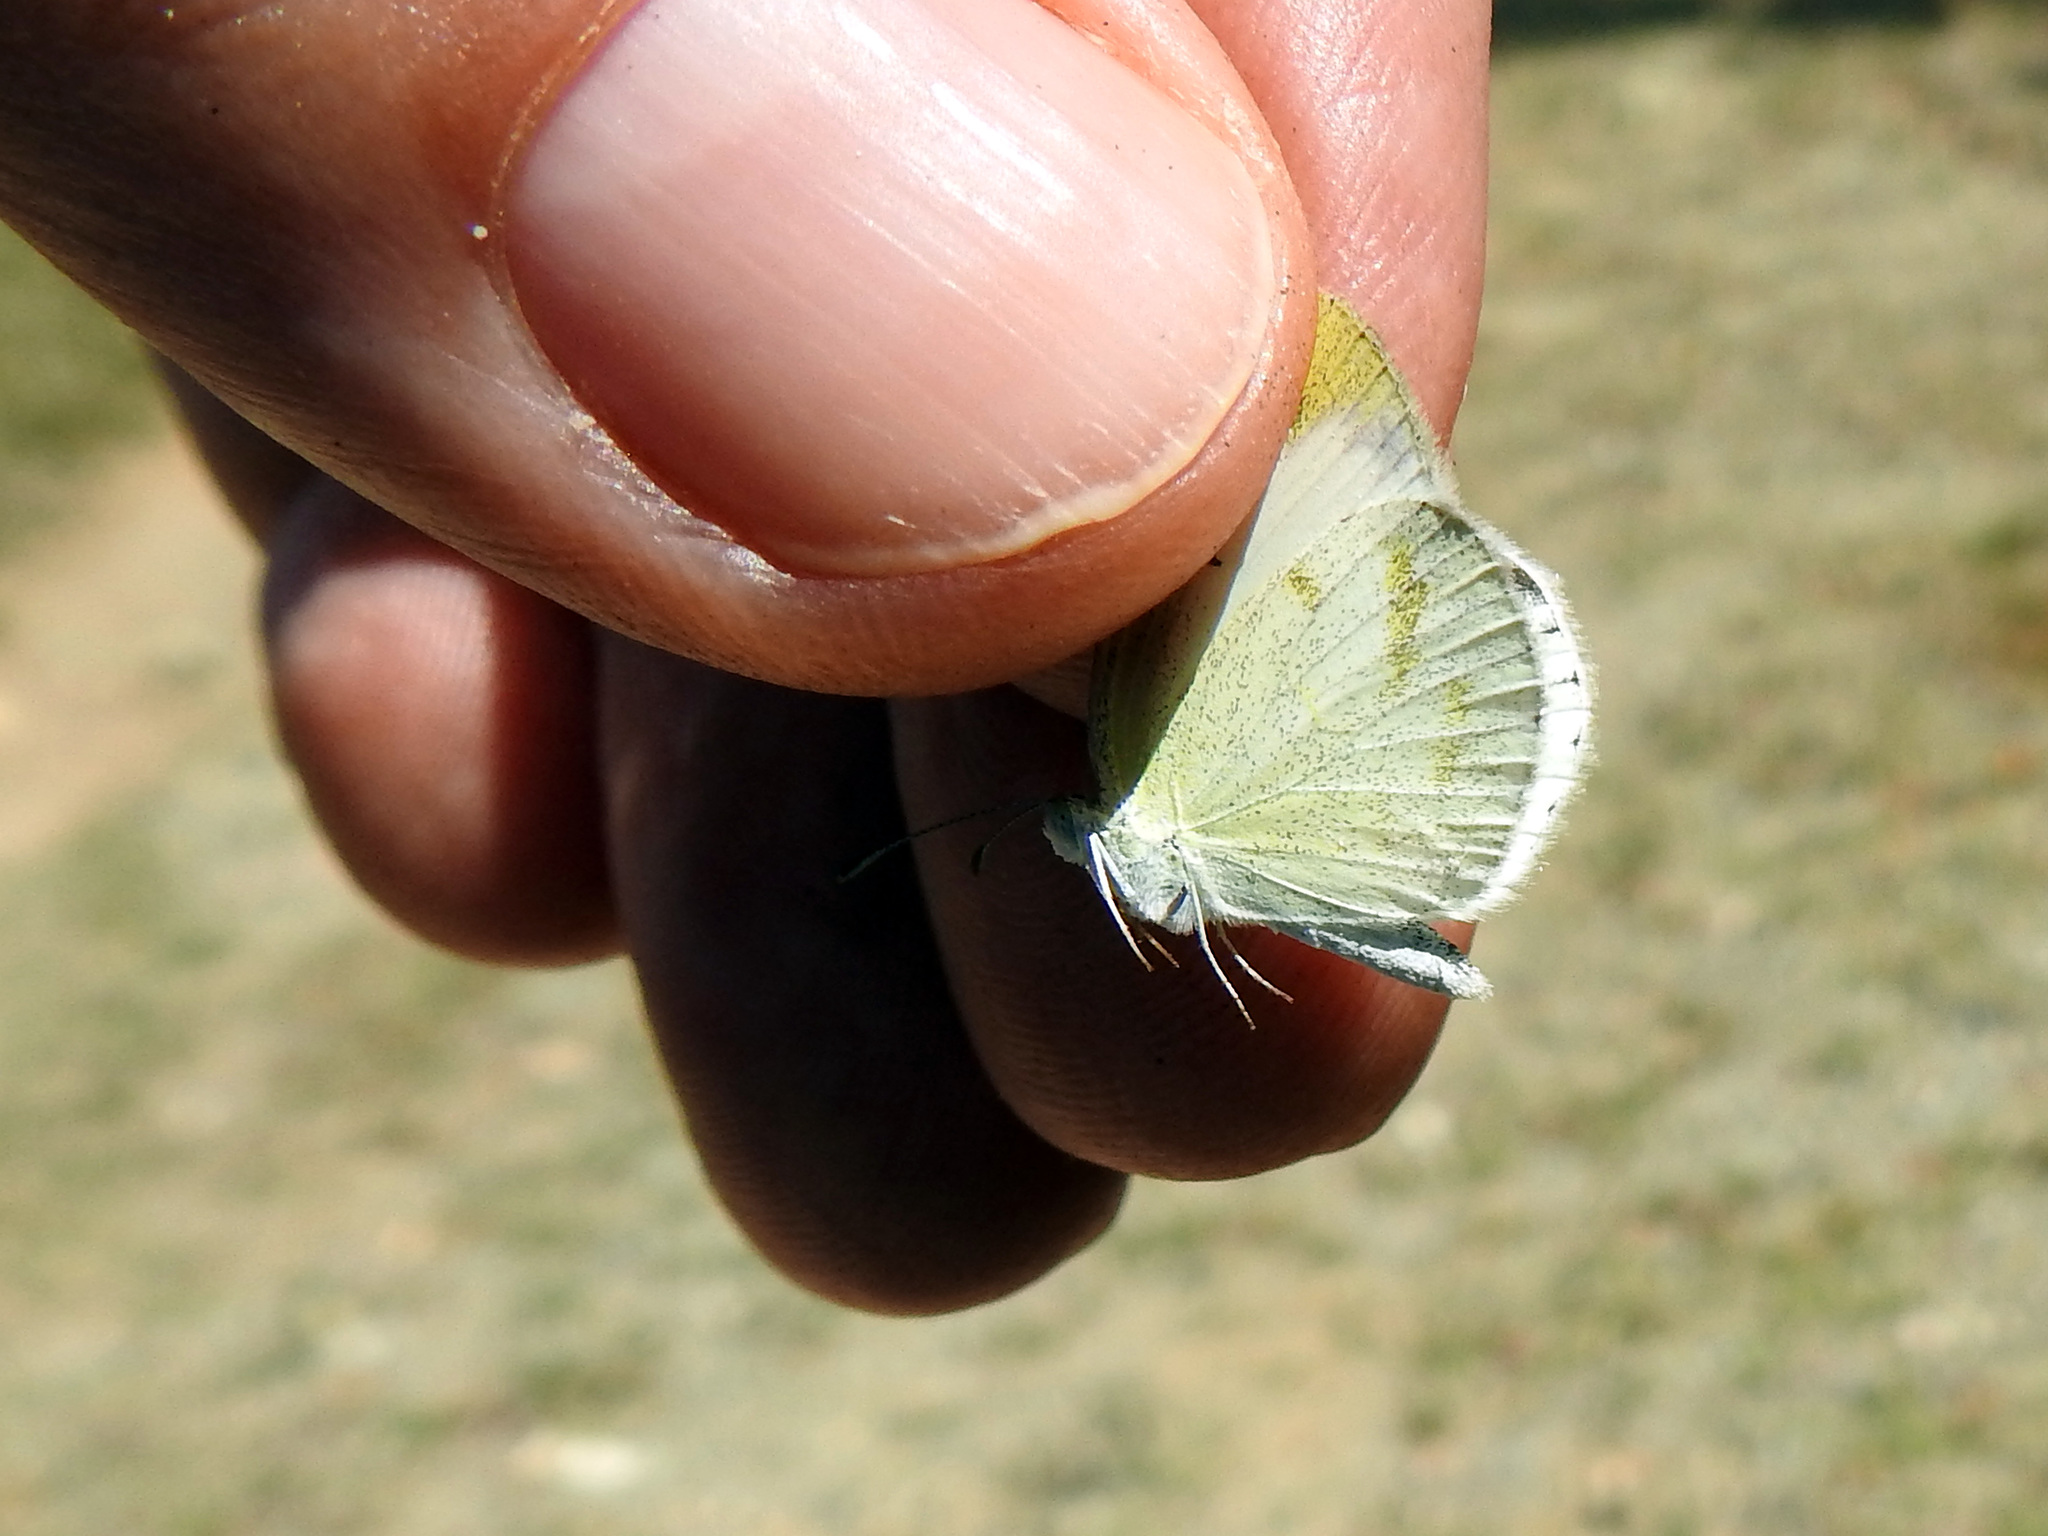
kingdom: Animalia
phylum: Arthropoda
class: Insecta
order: Lepidoptera
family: Pieridae
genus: Eurema
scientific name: Eurema lucina
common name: Smudged yellow
